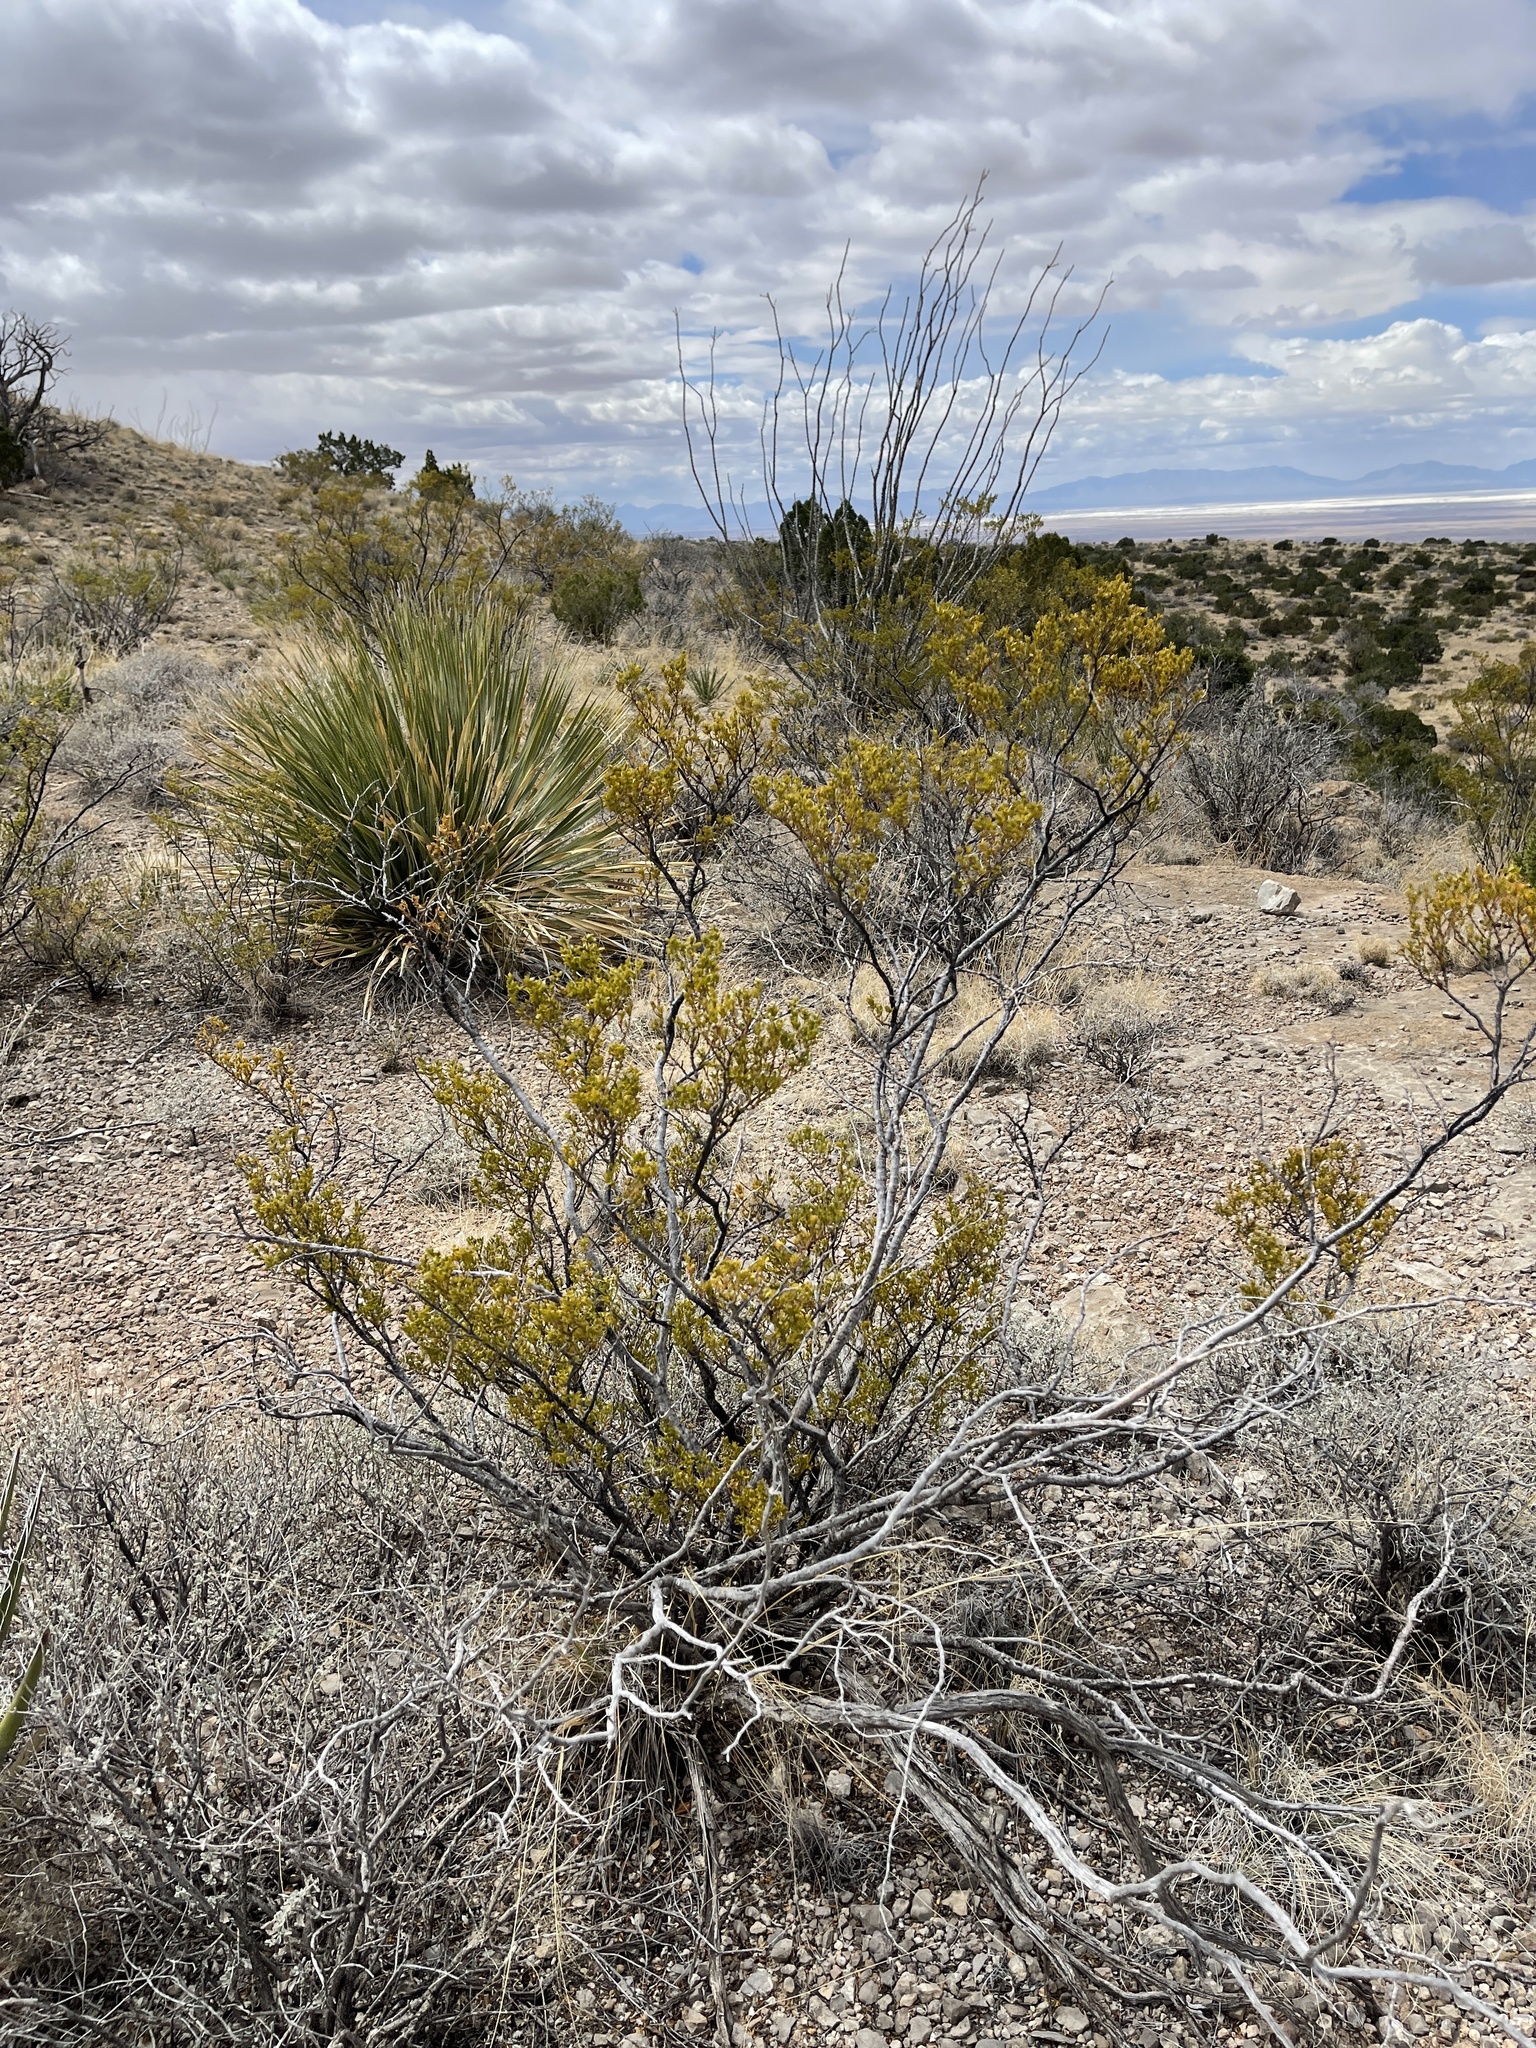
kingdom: Plantae
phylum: Tracheophyta
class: Magnoliopsida
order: Zygophyllales
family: Zygophyllaceae
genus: Larrea
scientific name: Larrea tridentata
